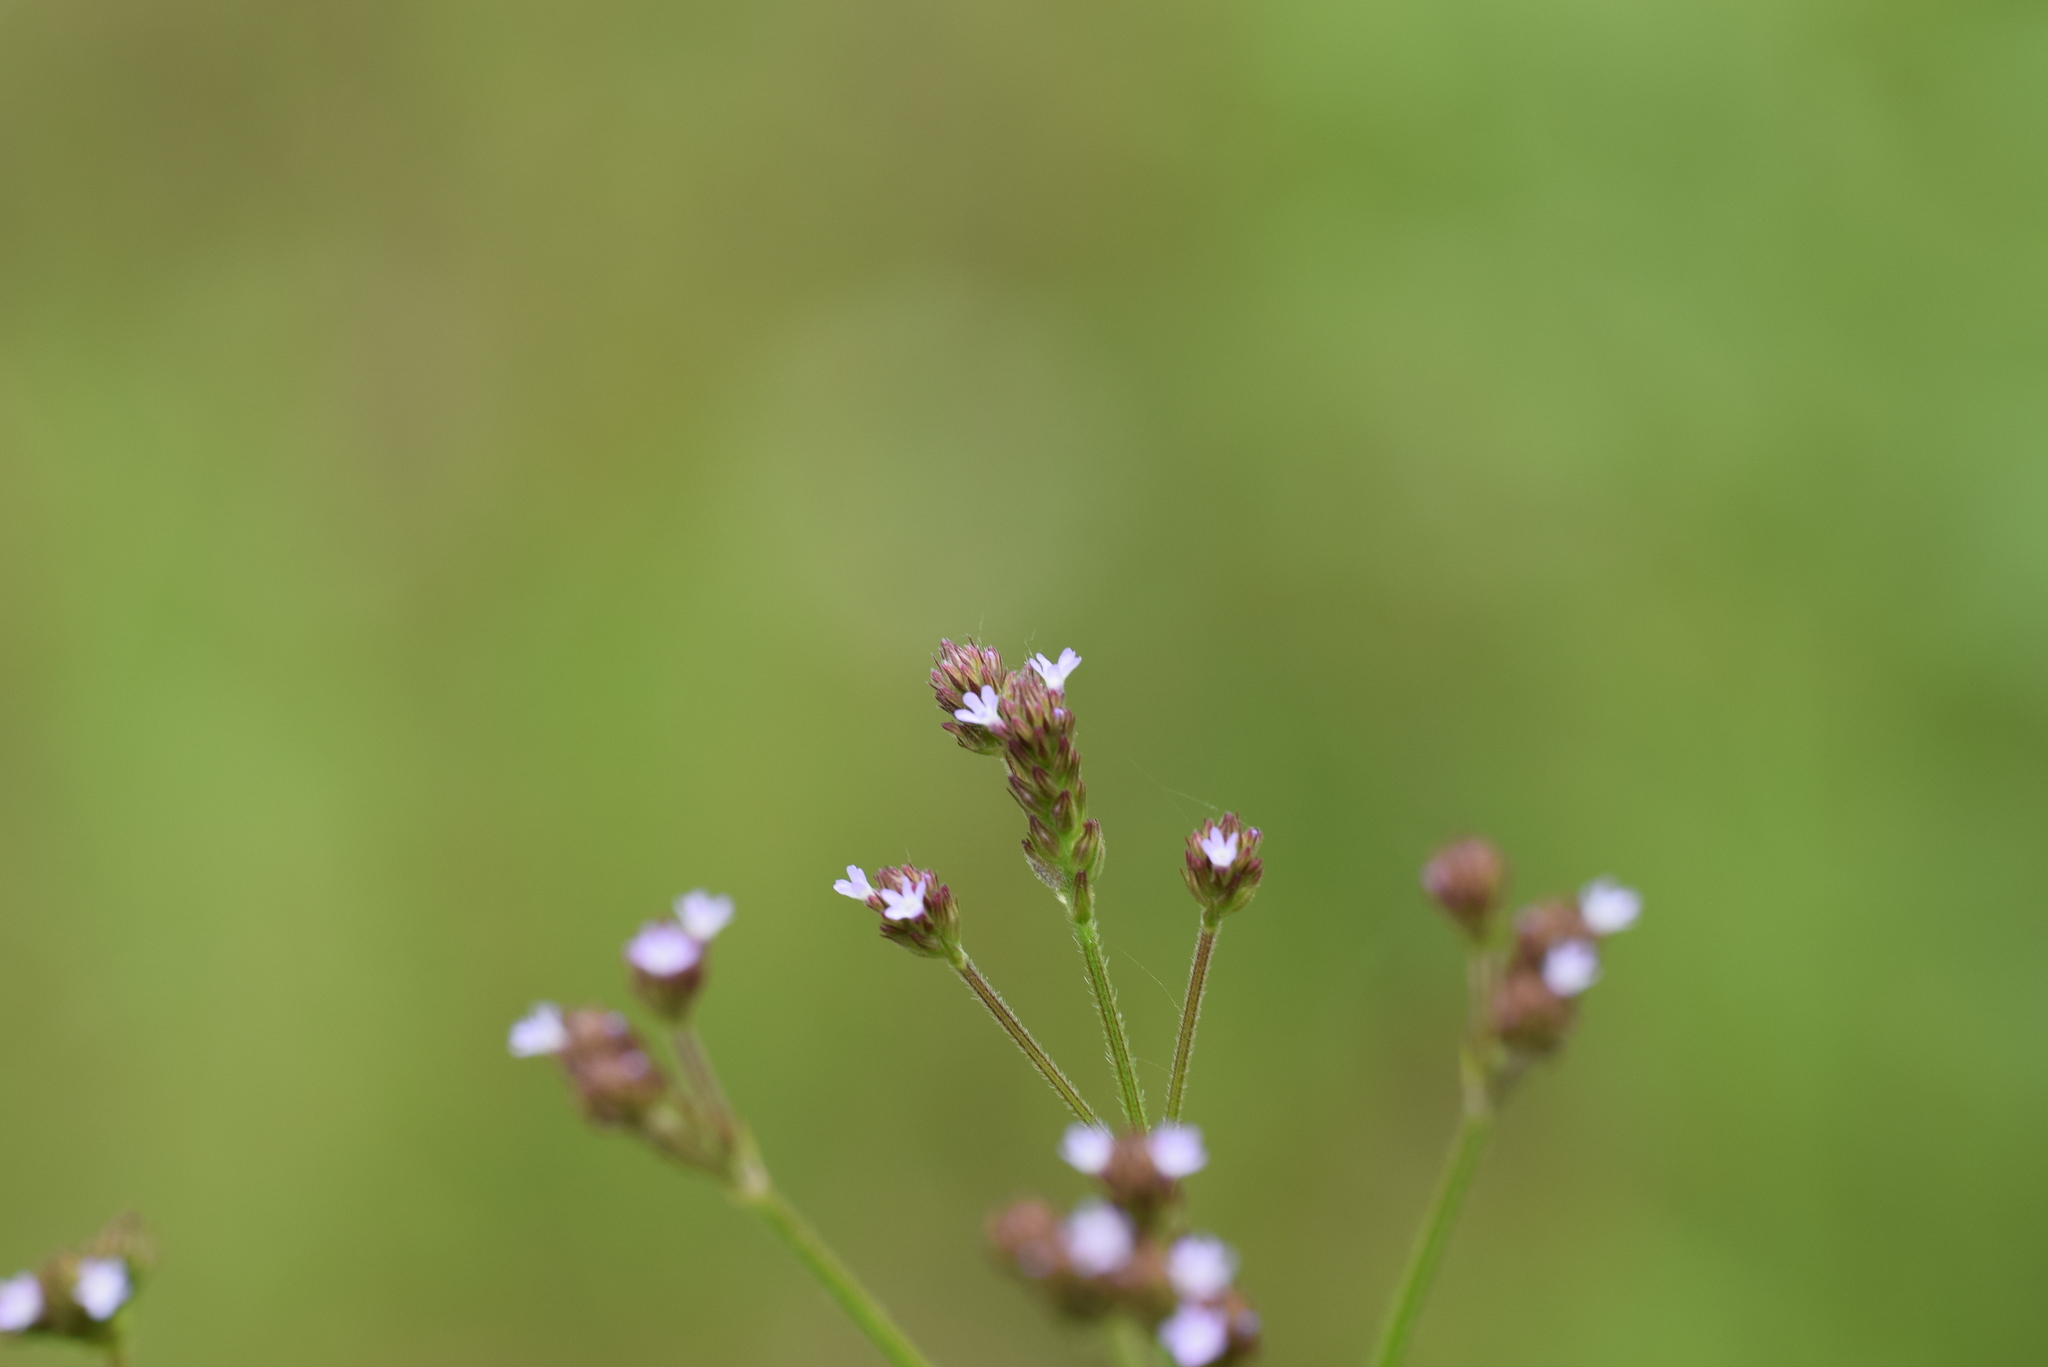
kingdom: Plantae
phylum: Tracheophyta
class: Magnoliopsida
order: Lamiales
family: Verbenaceae
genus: Verbena
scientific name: Verbena brasiliensis
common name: Brazilian vervain
